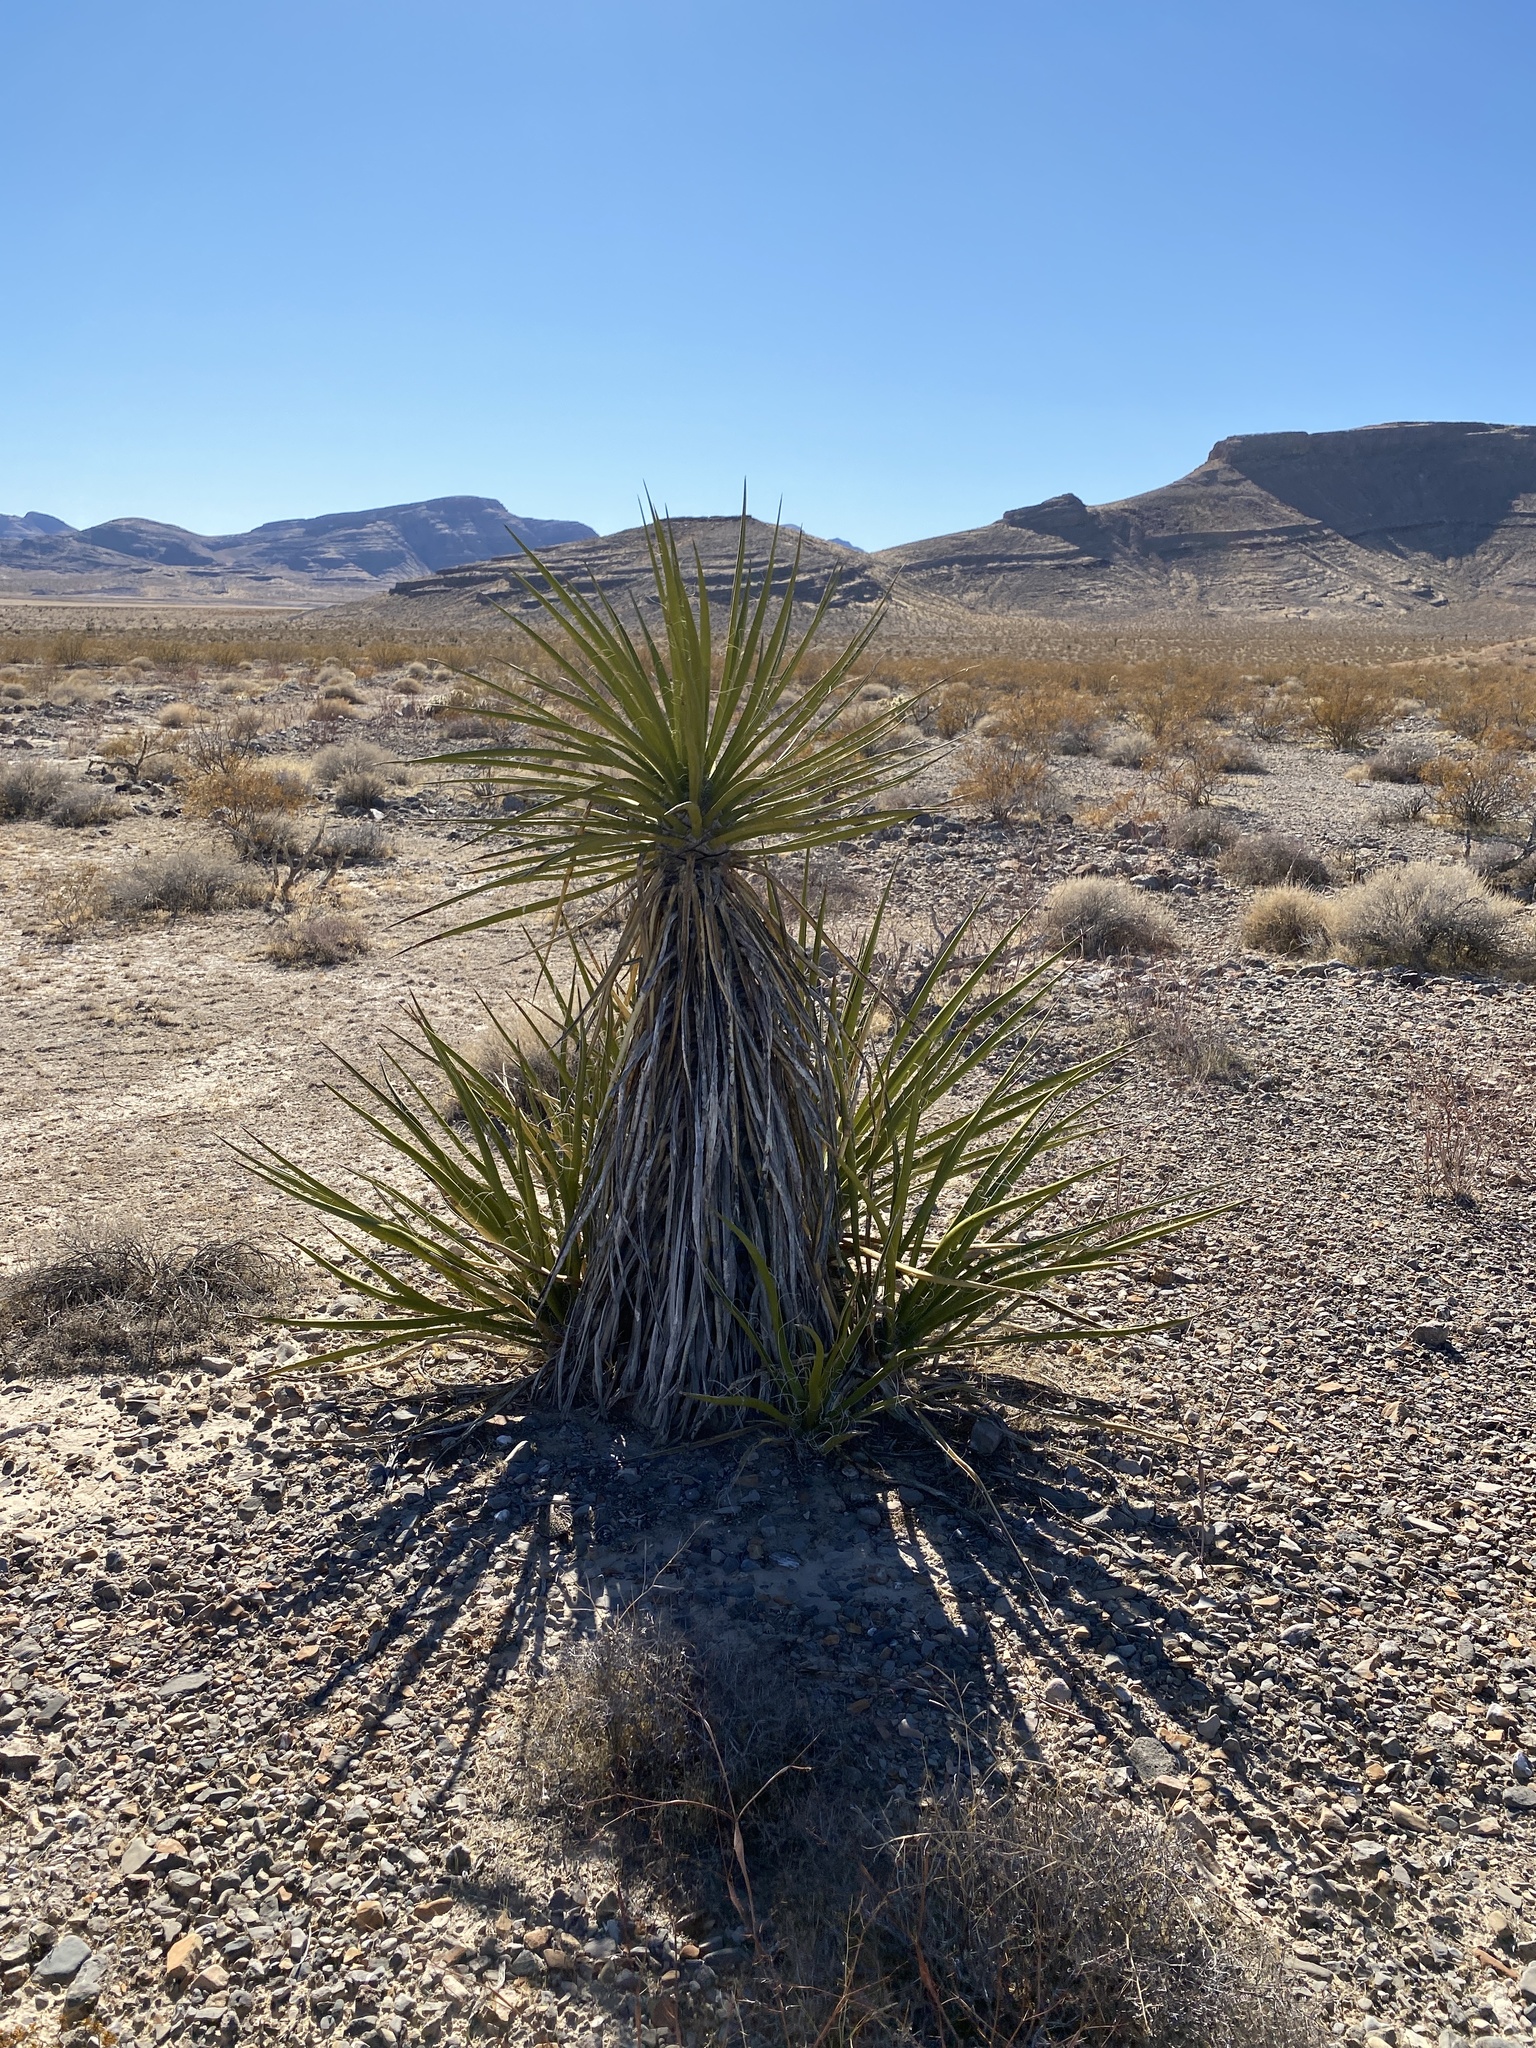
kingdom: Plantae
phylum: Tracheophyta
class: Liliopsida
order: Asparagales
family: Asparagaceae
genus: Yucca
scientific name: Yucca schidigera
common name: Mojave yucca
